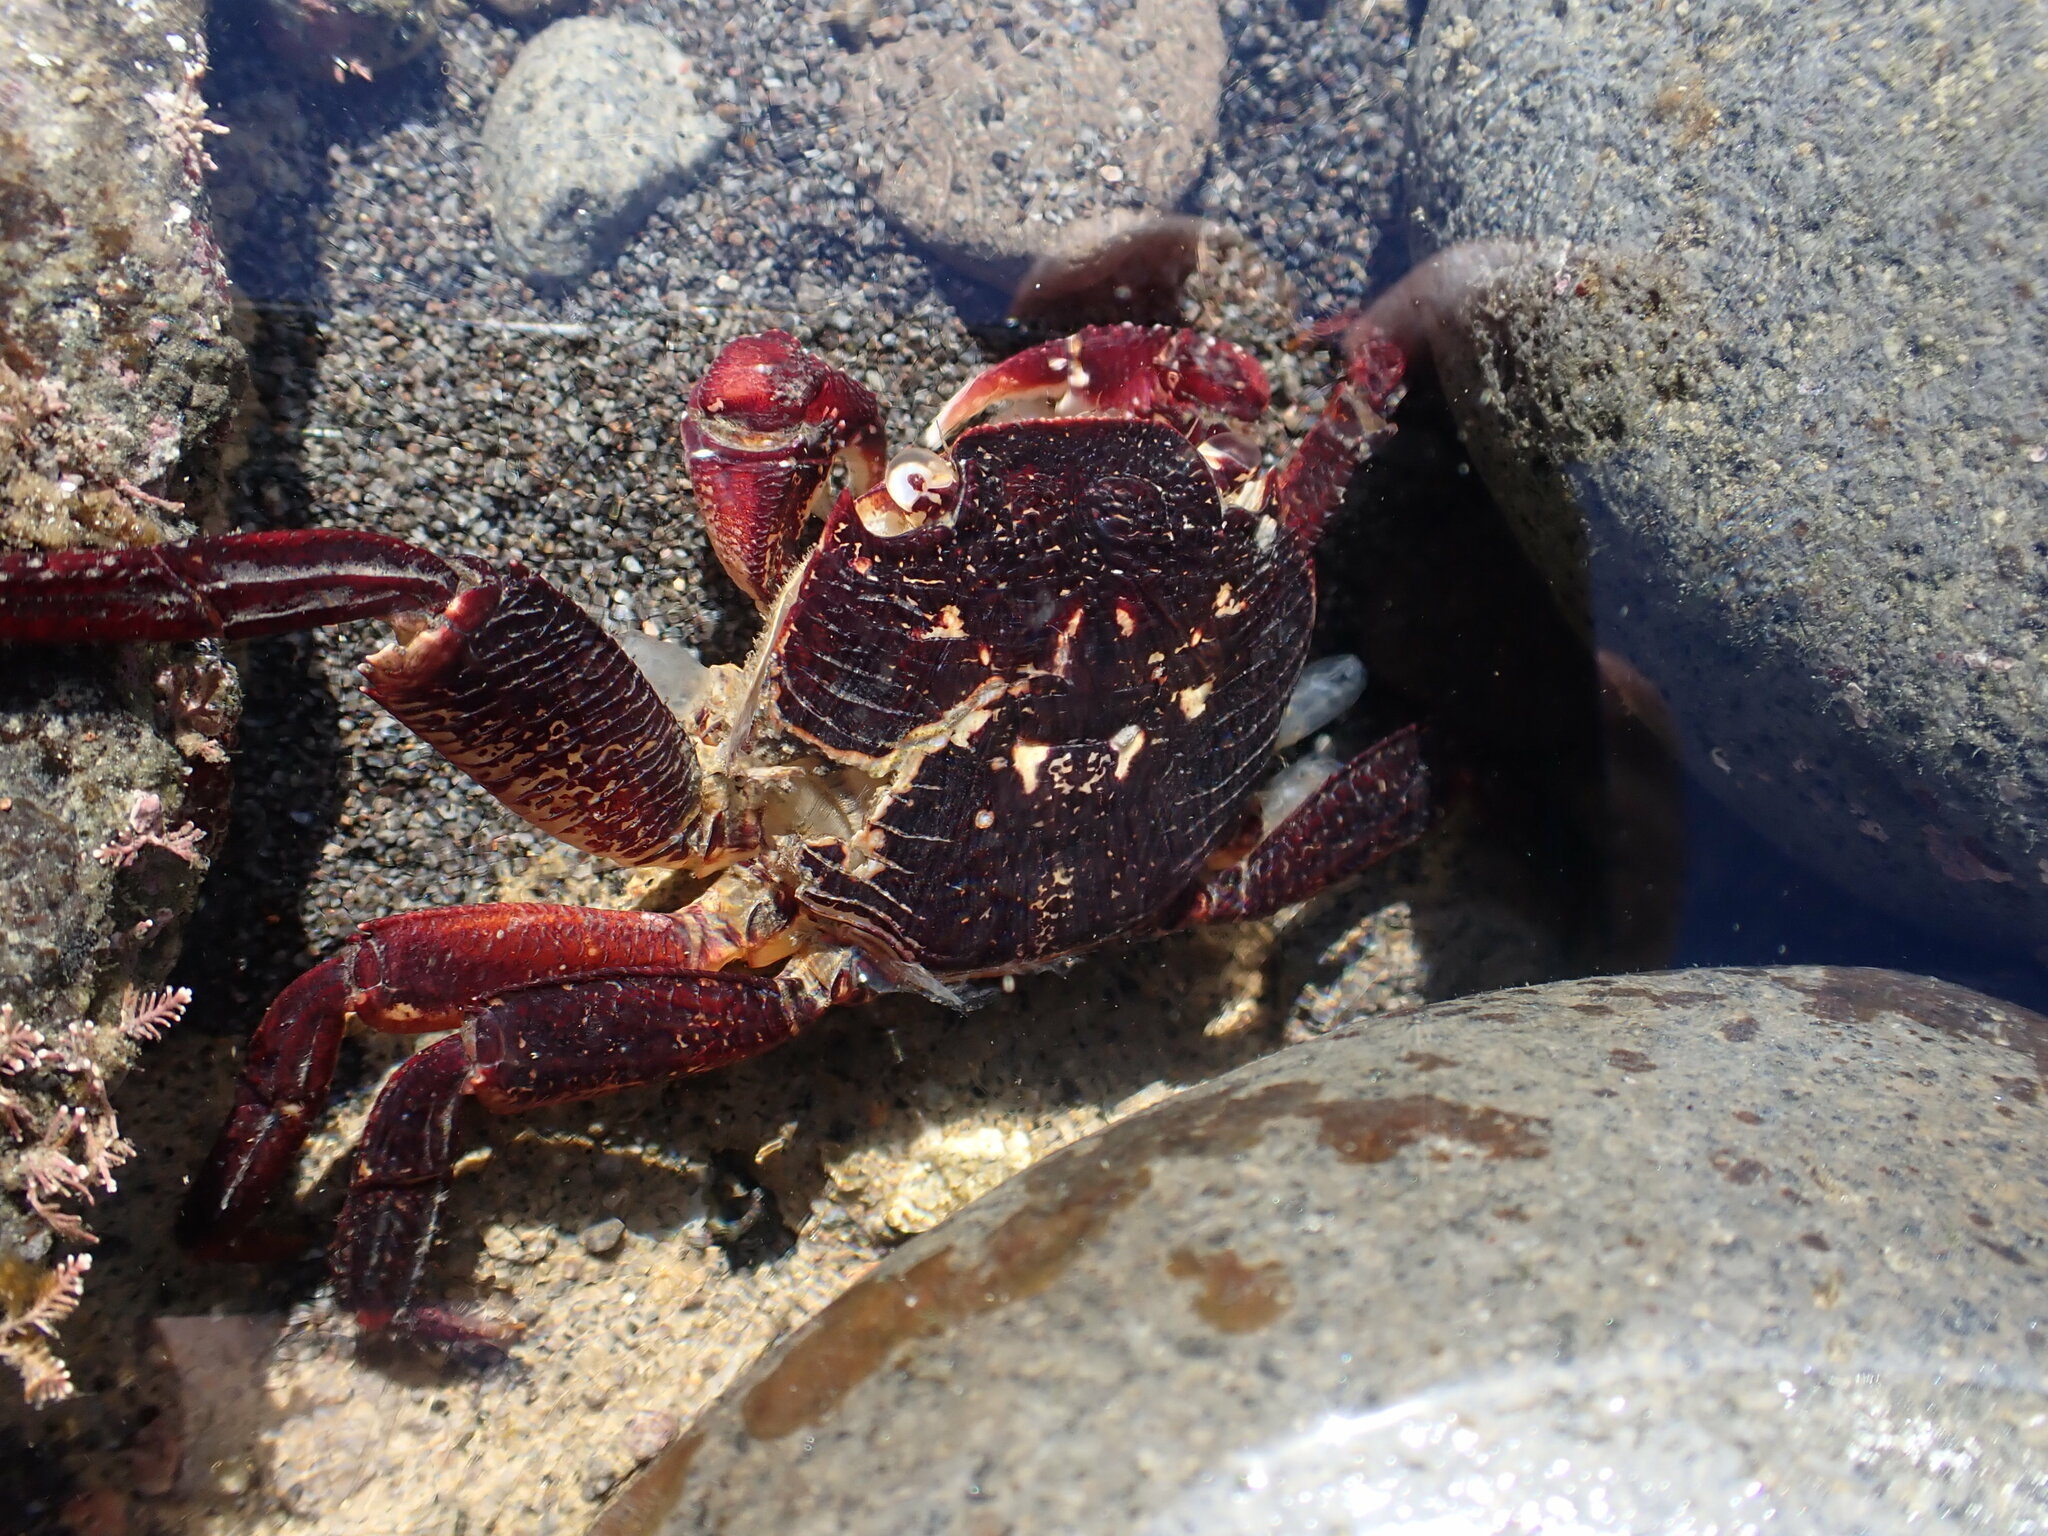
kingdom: Animalia
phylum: Arthropoda
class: Malacostraca
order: Decapoda
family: Grapsidae
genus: Leptograpsus
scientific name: Leptograpsus variegatus
